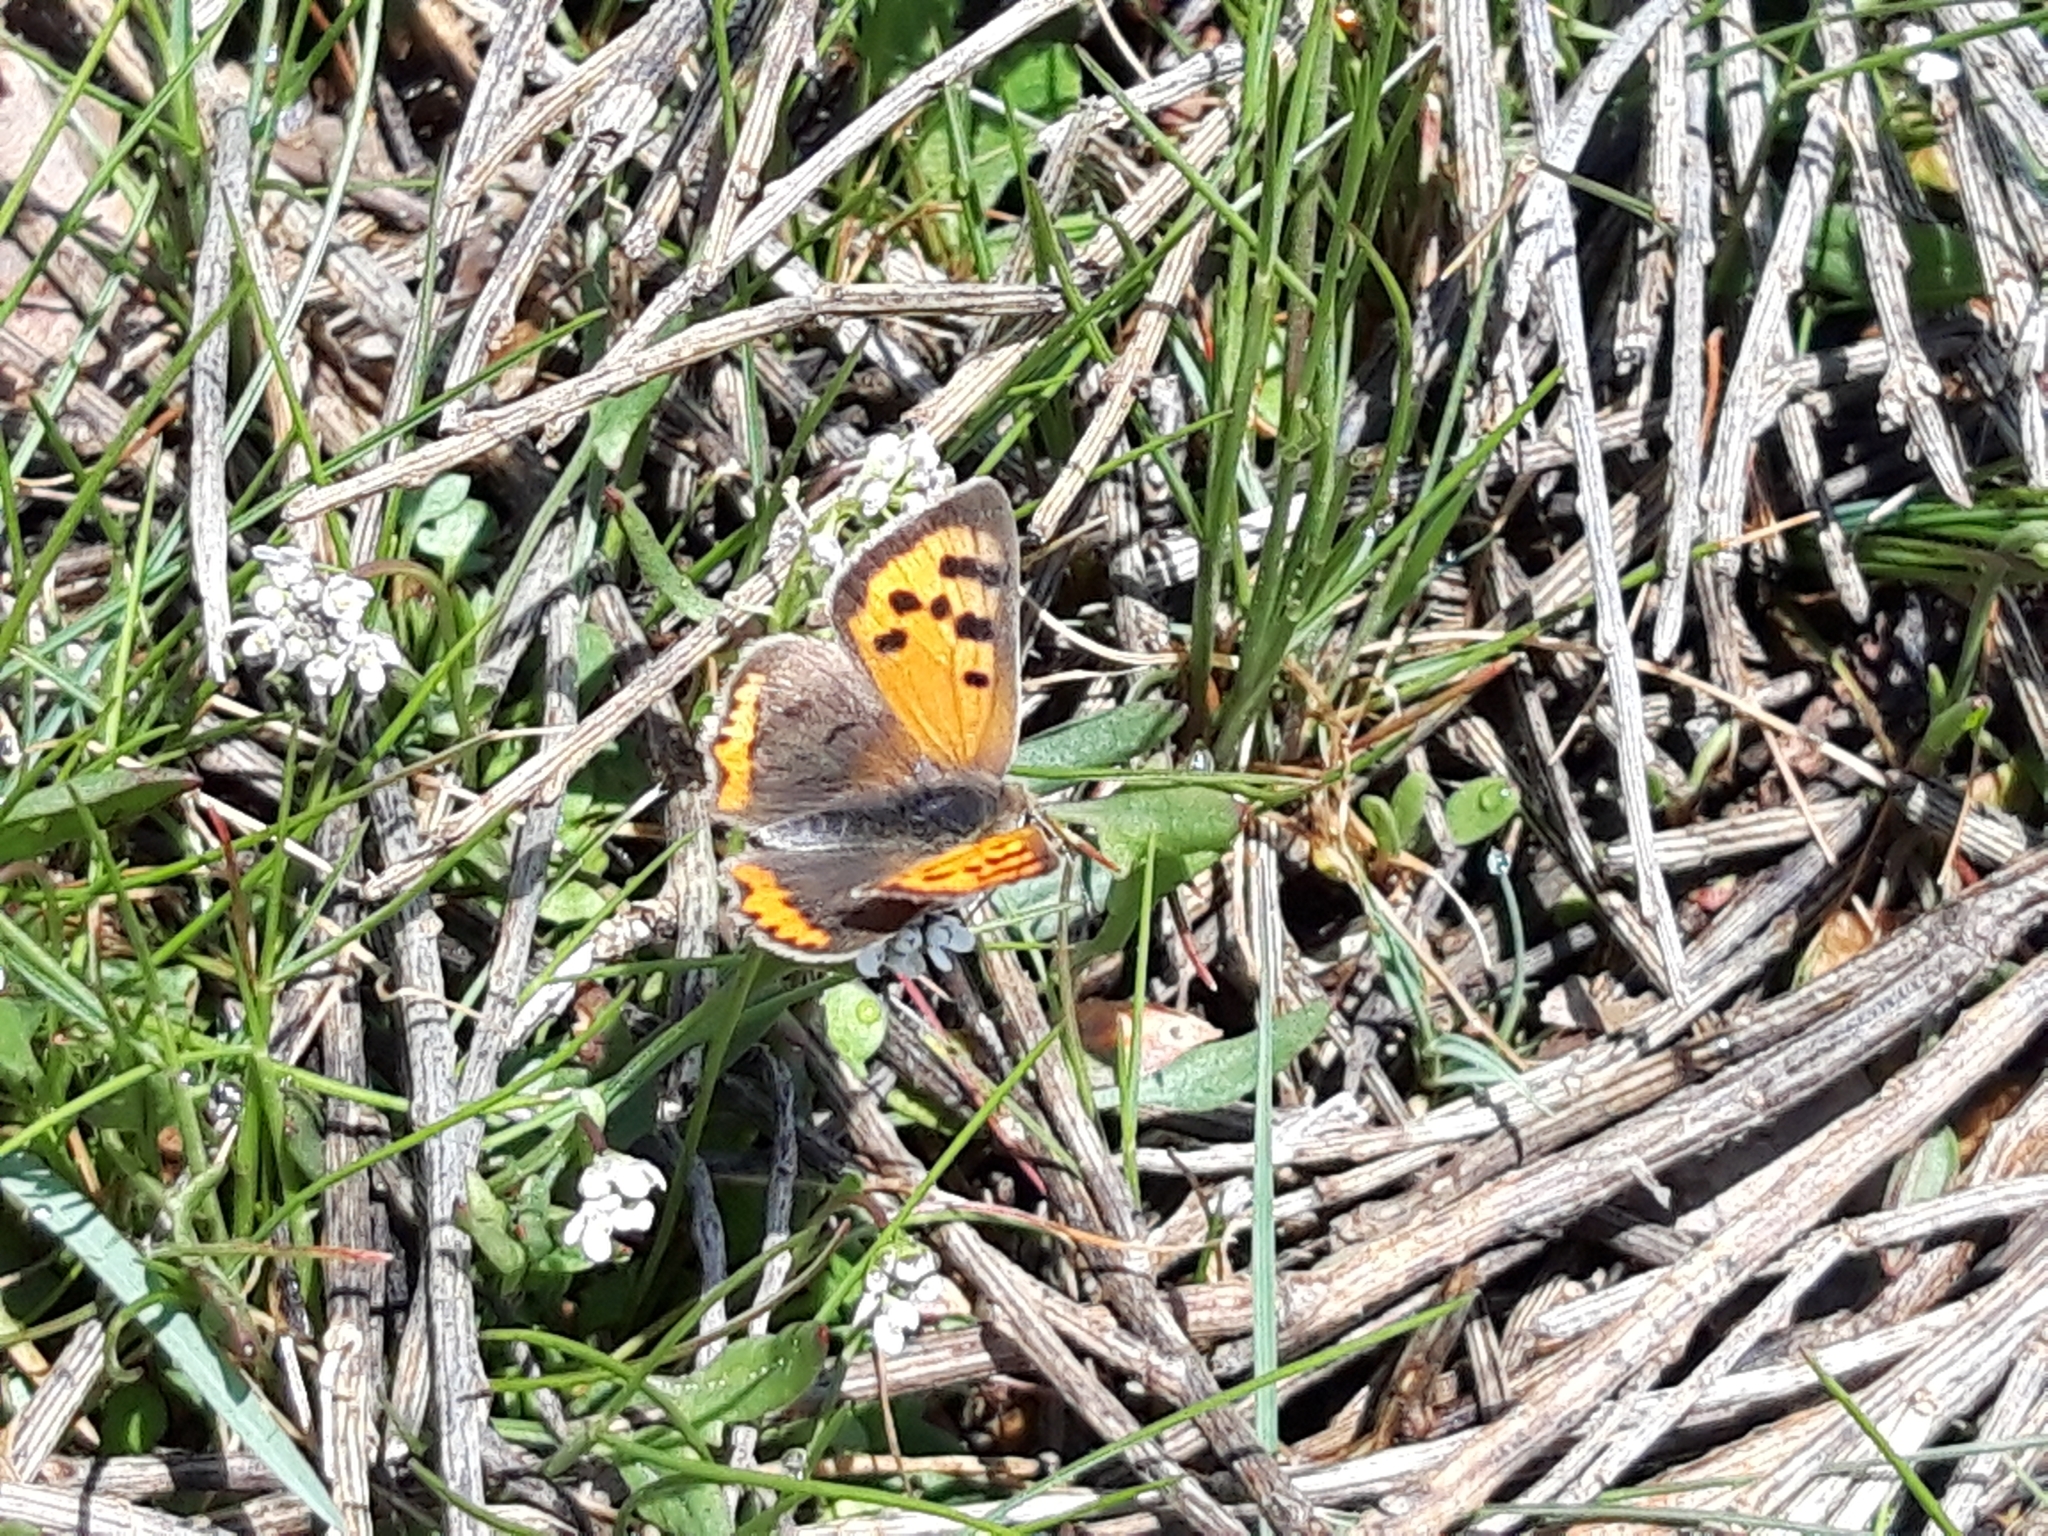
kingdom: Animalia
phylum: Arthropoda
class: Insecta
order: Lepidoptera
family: Lycaenidae
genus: Lycaena
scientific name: Lycaena phlaeas
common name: Small copper
